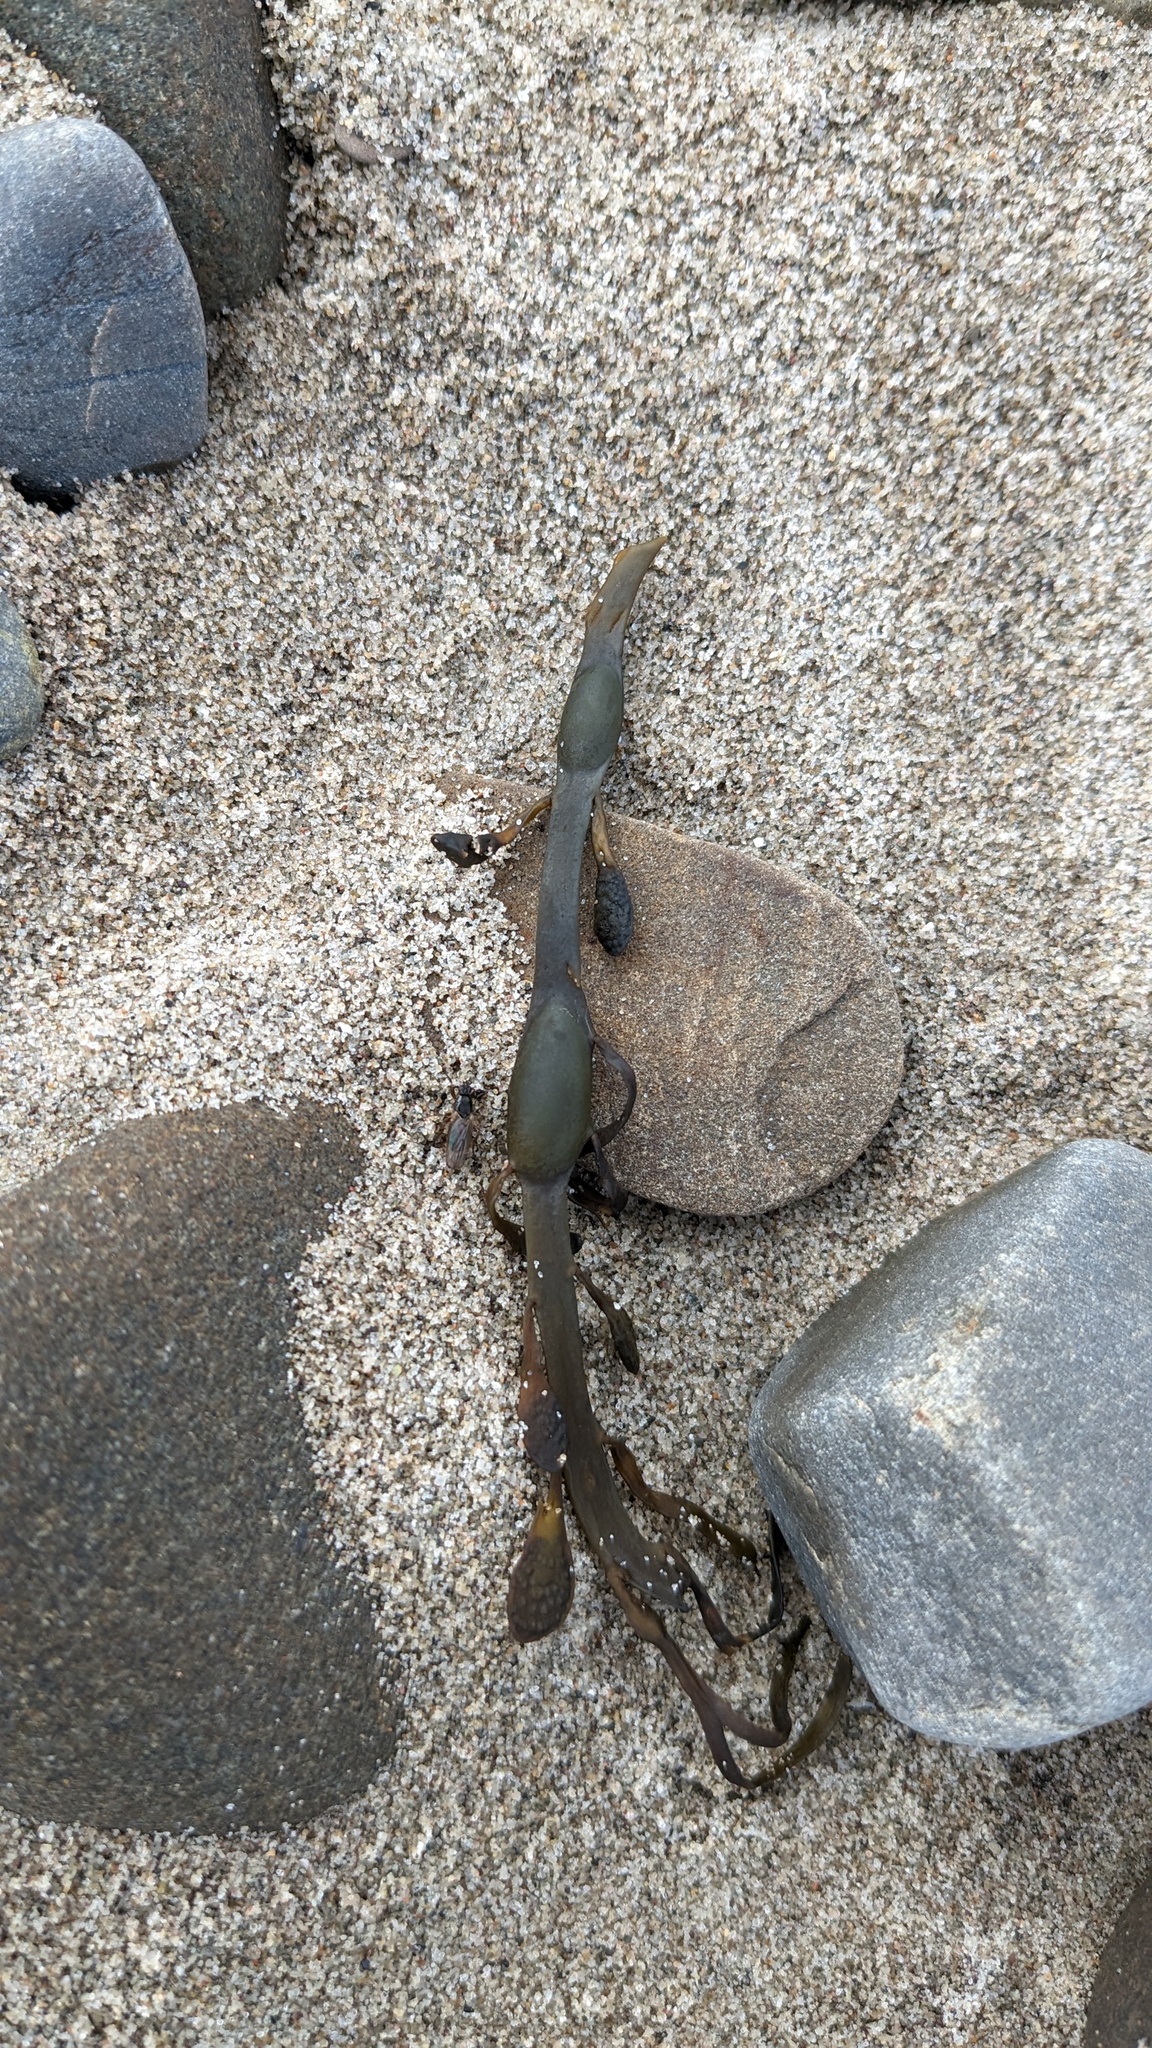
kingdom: Chromista
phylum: Ochrophyta
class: Phaeophyceae
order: Fucales
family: Fucaceae
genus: Ascophyllum
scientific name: Ascophyllum nodosum
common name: Knotted wrack
